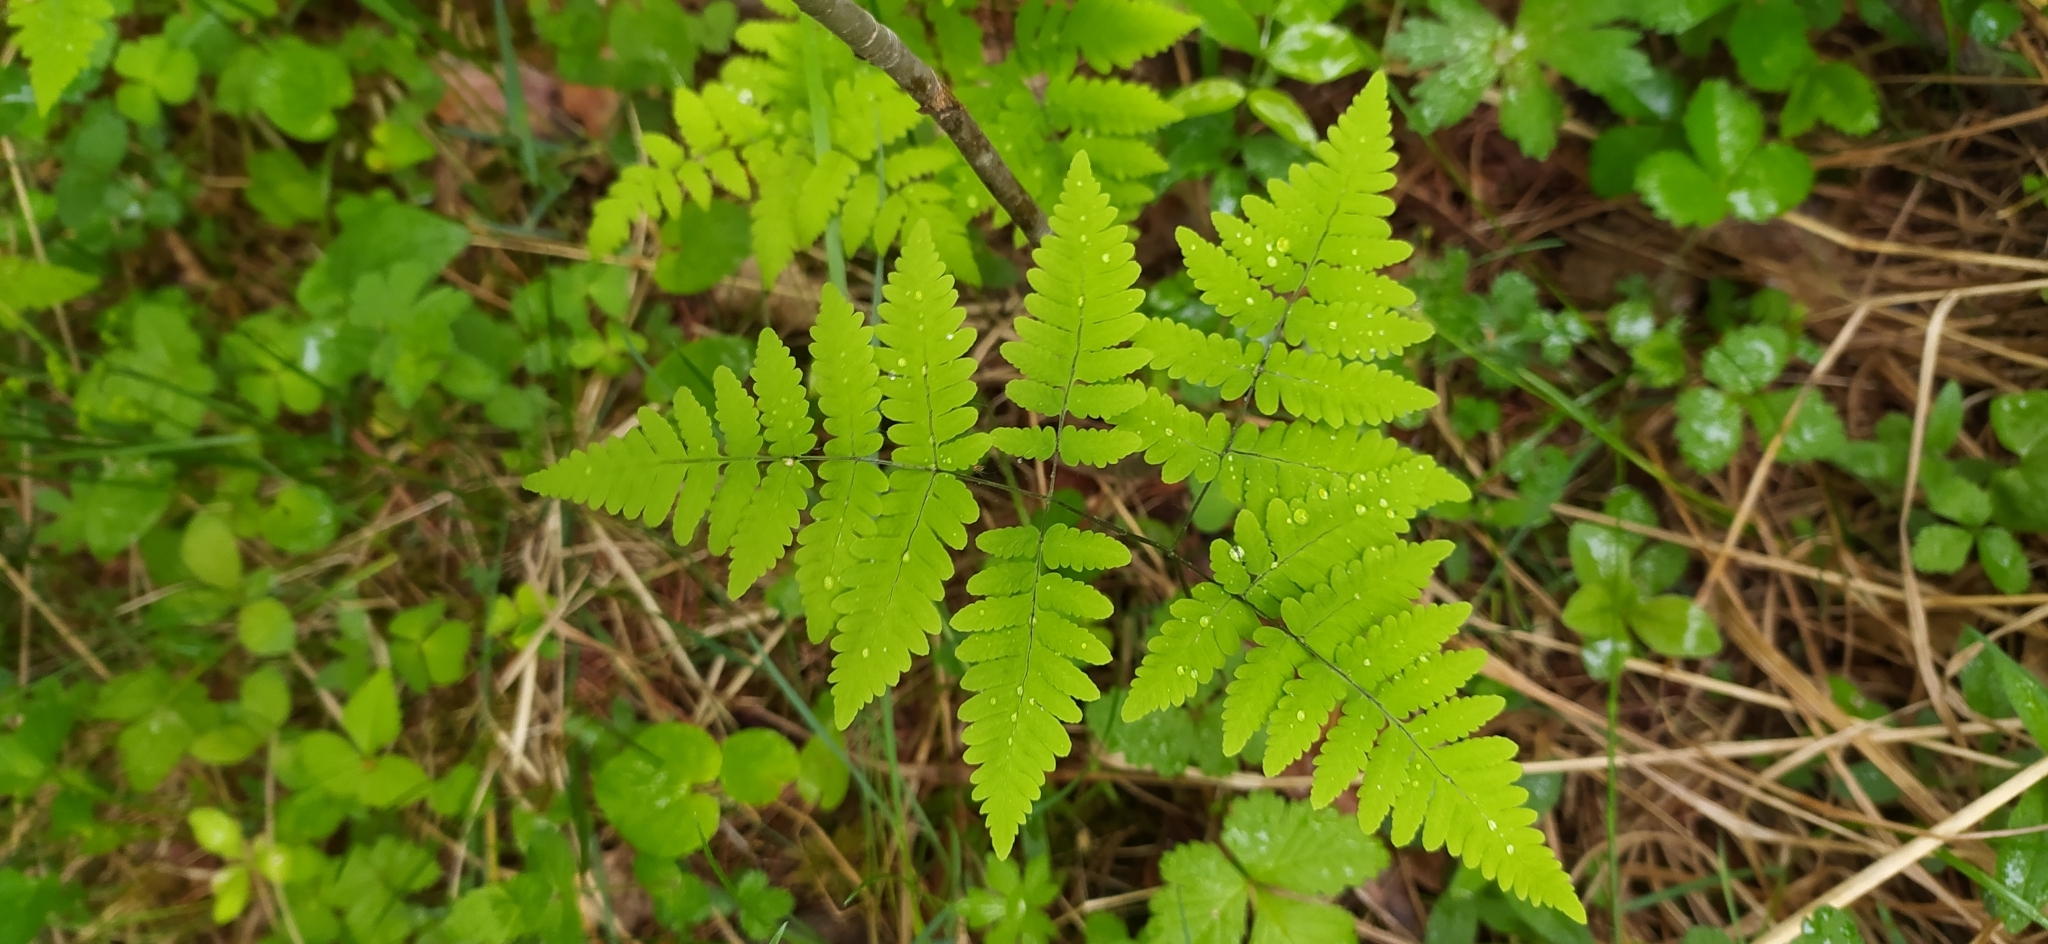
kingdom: Plantae
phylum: Tracheophyta
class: Polypodiopsida
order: Polypodiales
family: Cystopteridaceae
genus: Gymnocarpium
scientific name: Gymnocarpium dryopteris
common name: Oak fern
